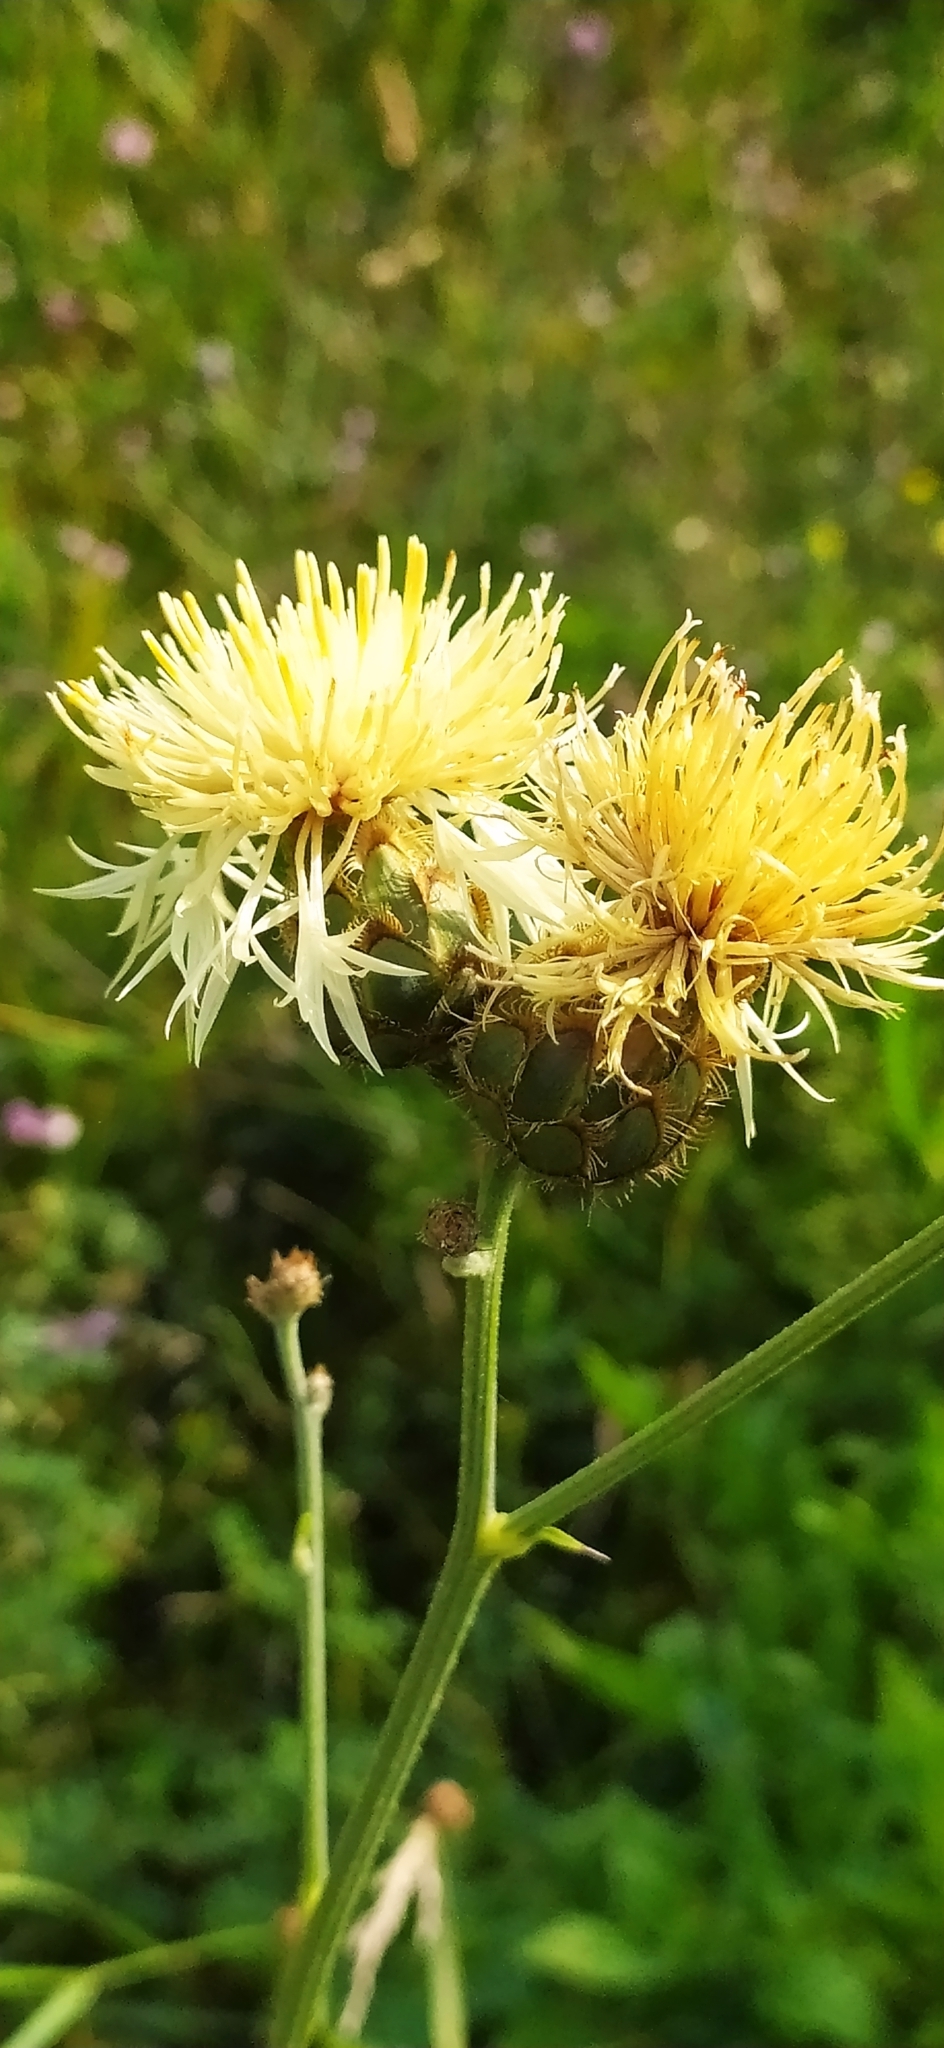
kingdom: Plantae
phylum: Tracheophyta
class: Magnoliopsida
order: Asterales
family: Asteraceae
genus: Centaurea
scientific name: Centaurea orientalis
